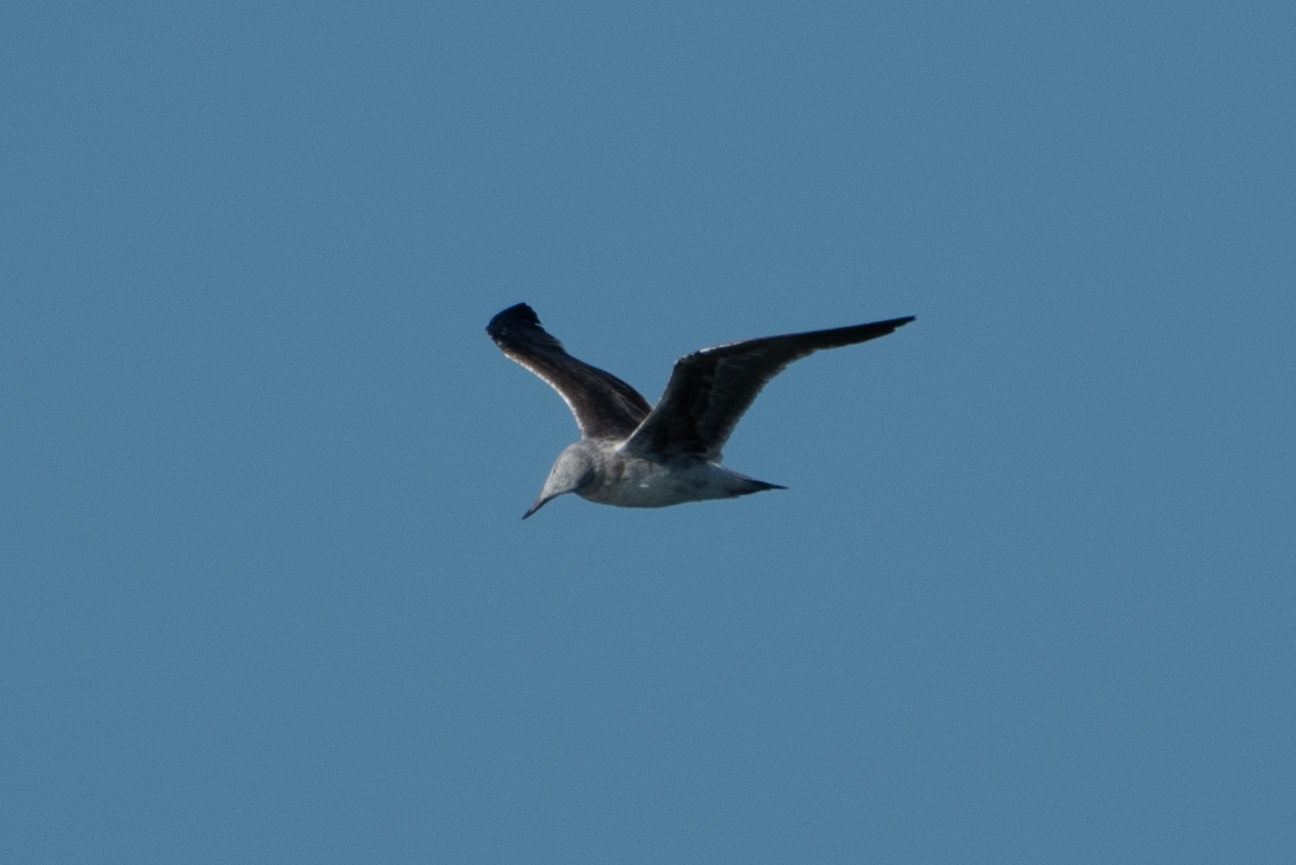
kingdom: Animalia
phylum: Chordata
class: Aves
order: Charadriiformes
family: Laridae
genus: Larus
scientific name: Larus occidentalis
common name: Western gull
